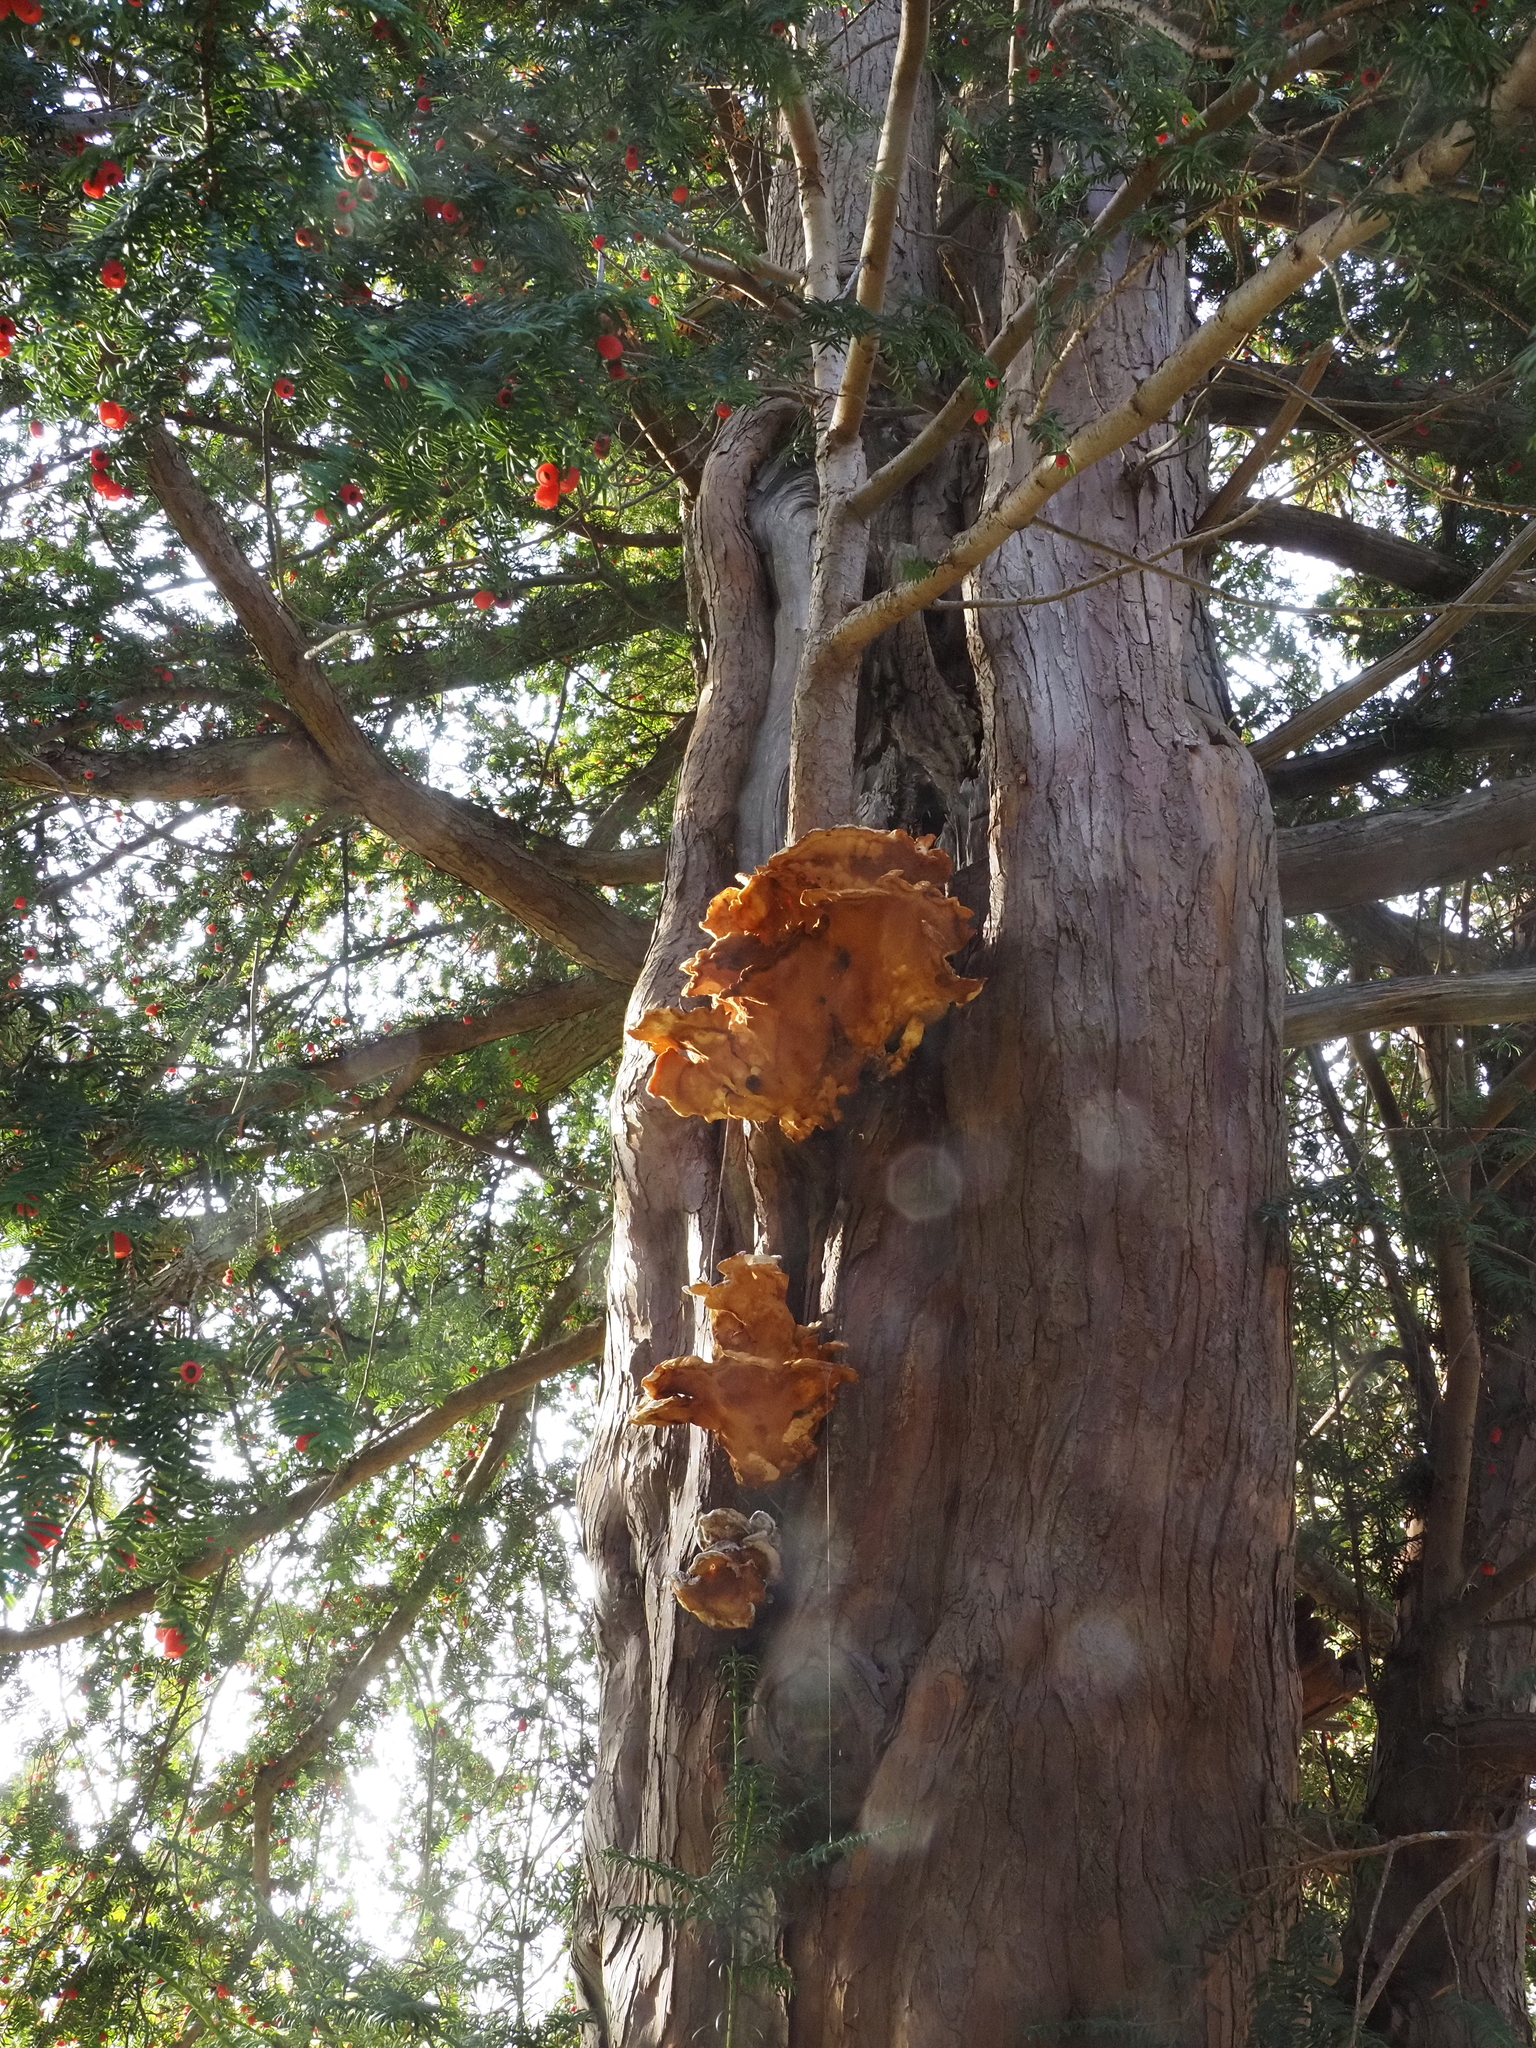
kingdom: Fungi
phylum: Basidiomycota
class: Agaricomycetes
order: Polyporales
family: Laetiporaceae
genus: Laetiporus
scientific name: Laetiporus sulphureus
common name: Chicken of the woods
